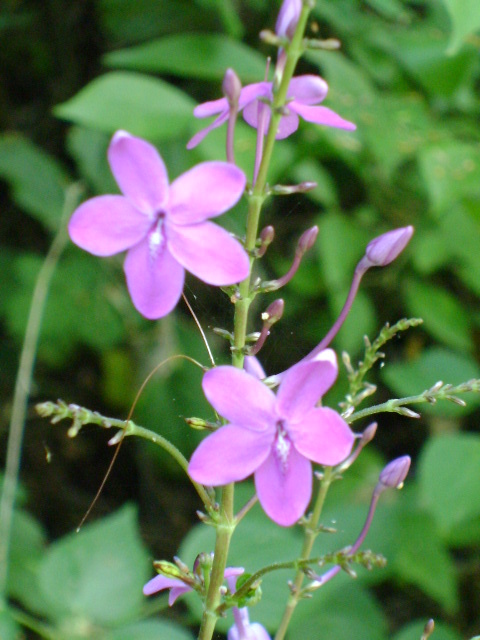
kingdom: Plantae
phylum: Tracheophyta
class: Magnoliopsida
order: Lamiales
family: Acanthaceae
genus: Pseuderanthemum
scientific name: Pseuderanthemum alatum
